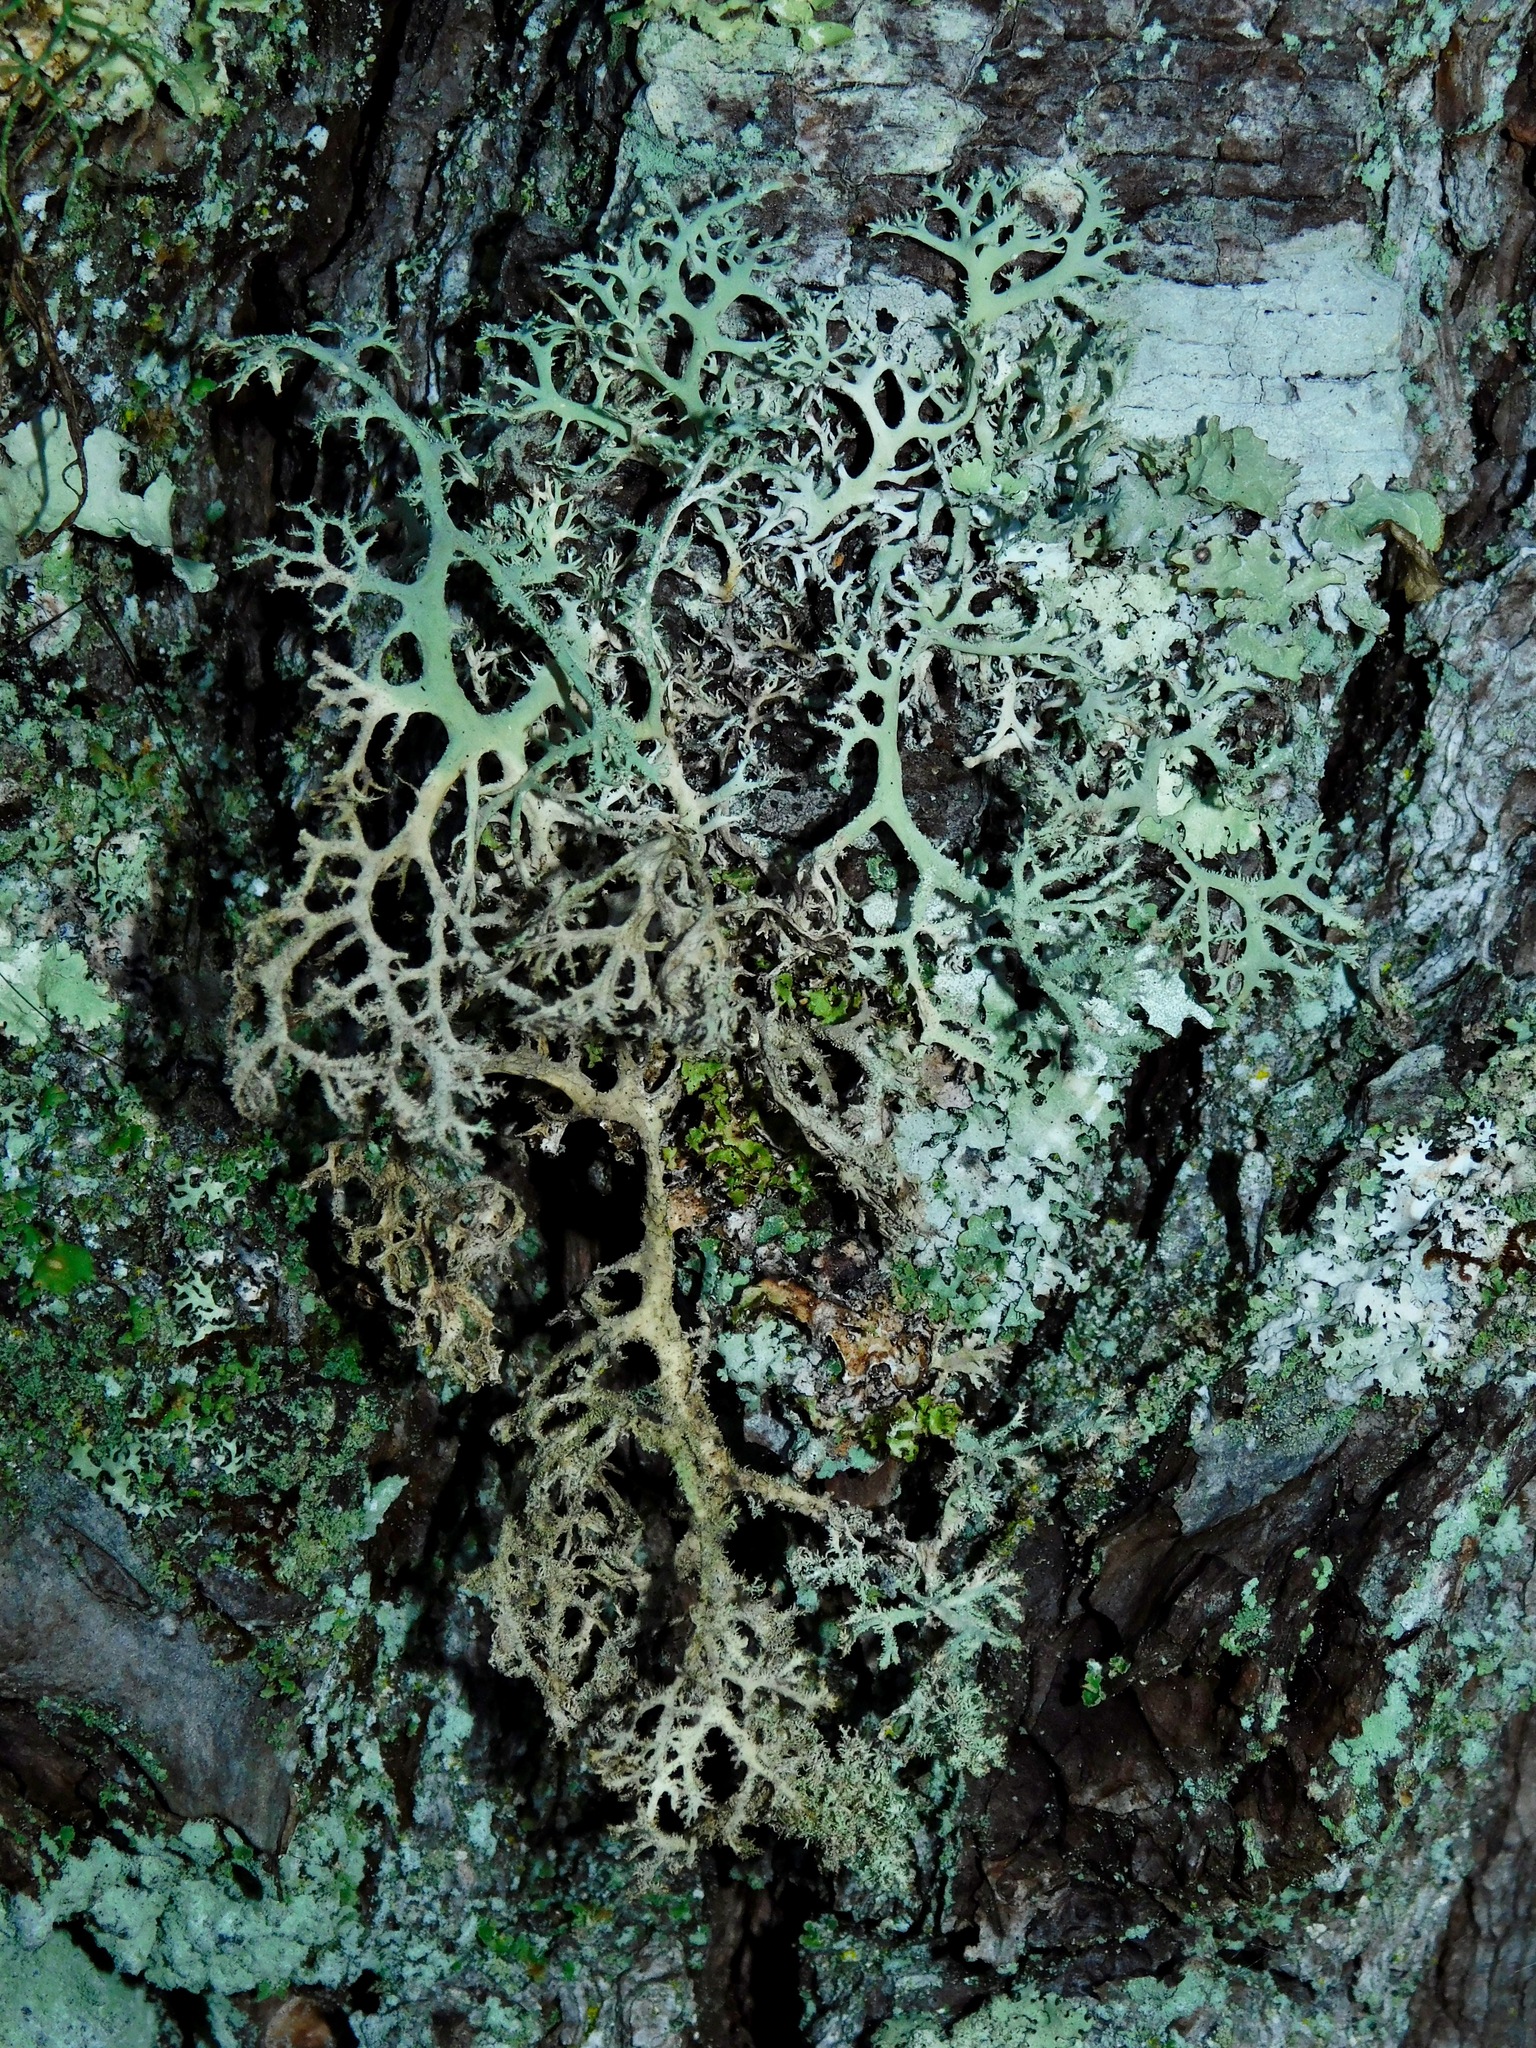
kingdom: Fungi
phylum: Ascomycota
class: Lecanoromycetes
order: Lecanorales
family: Parmeliaceae
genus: Pseudevernia
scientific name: Pseudevernia consocians
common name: Common antler lichen
